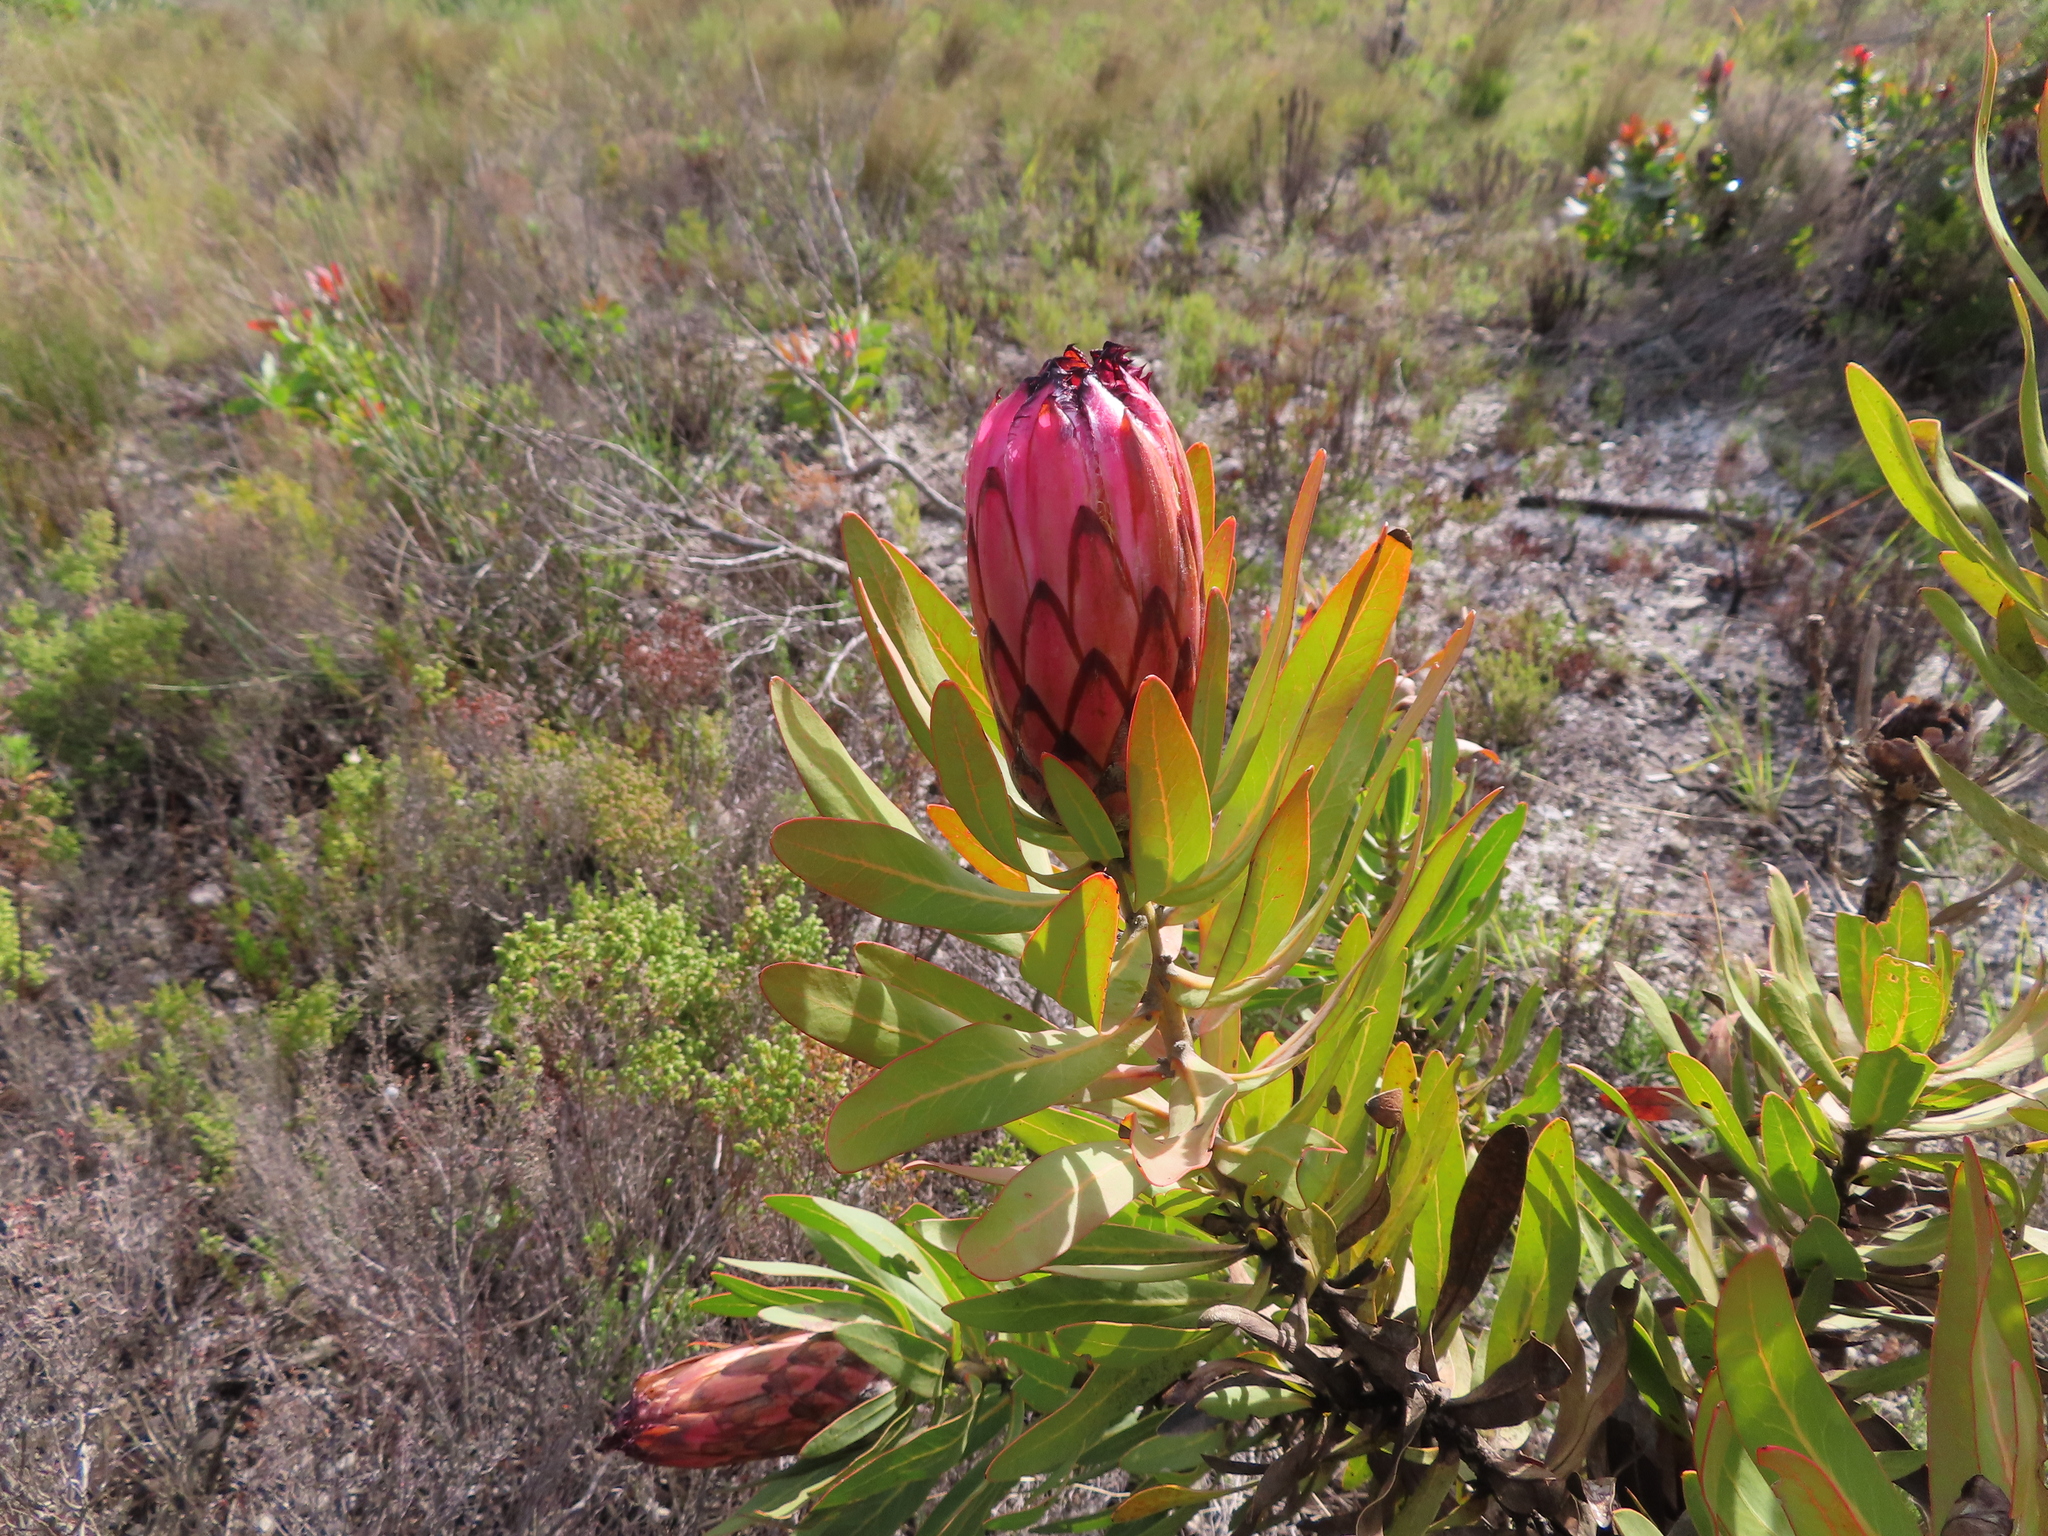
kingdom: Plantae
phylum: Tracheophyta
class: Magnoliopsida
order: Proteales
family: Proteaceae
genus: Protea
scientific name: Protea neriifolia
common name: Blue sugarbush
